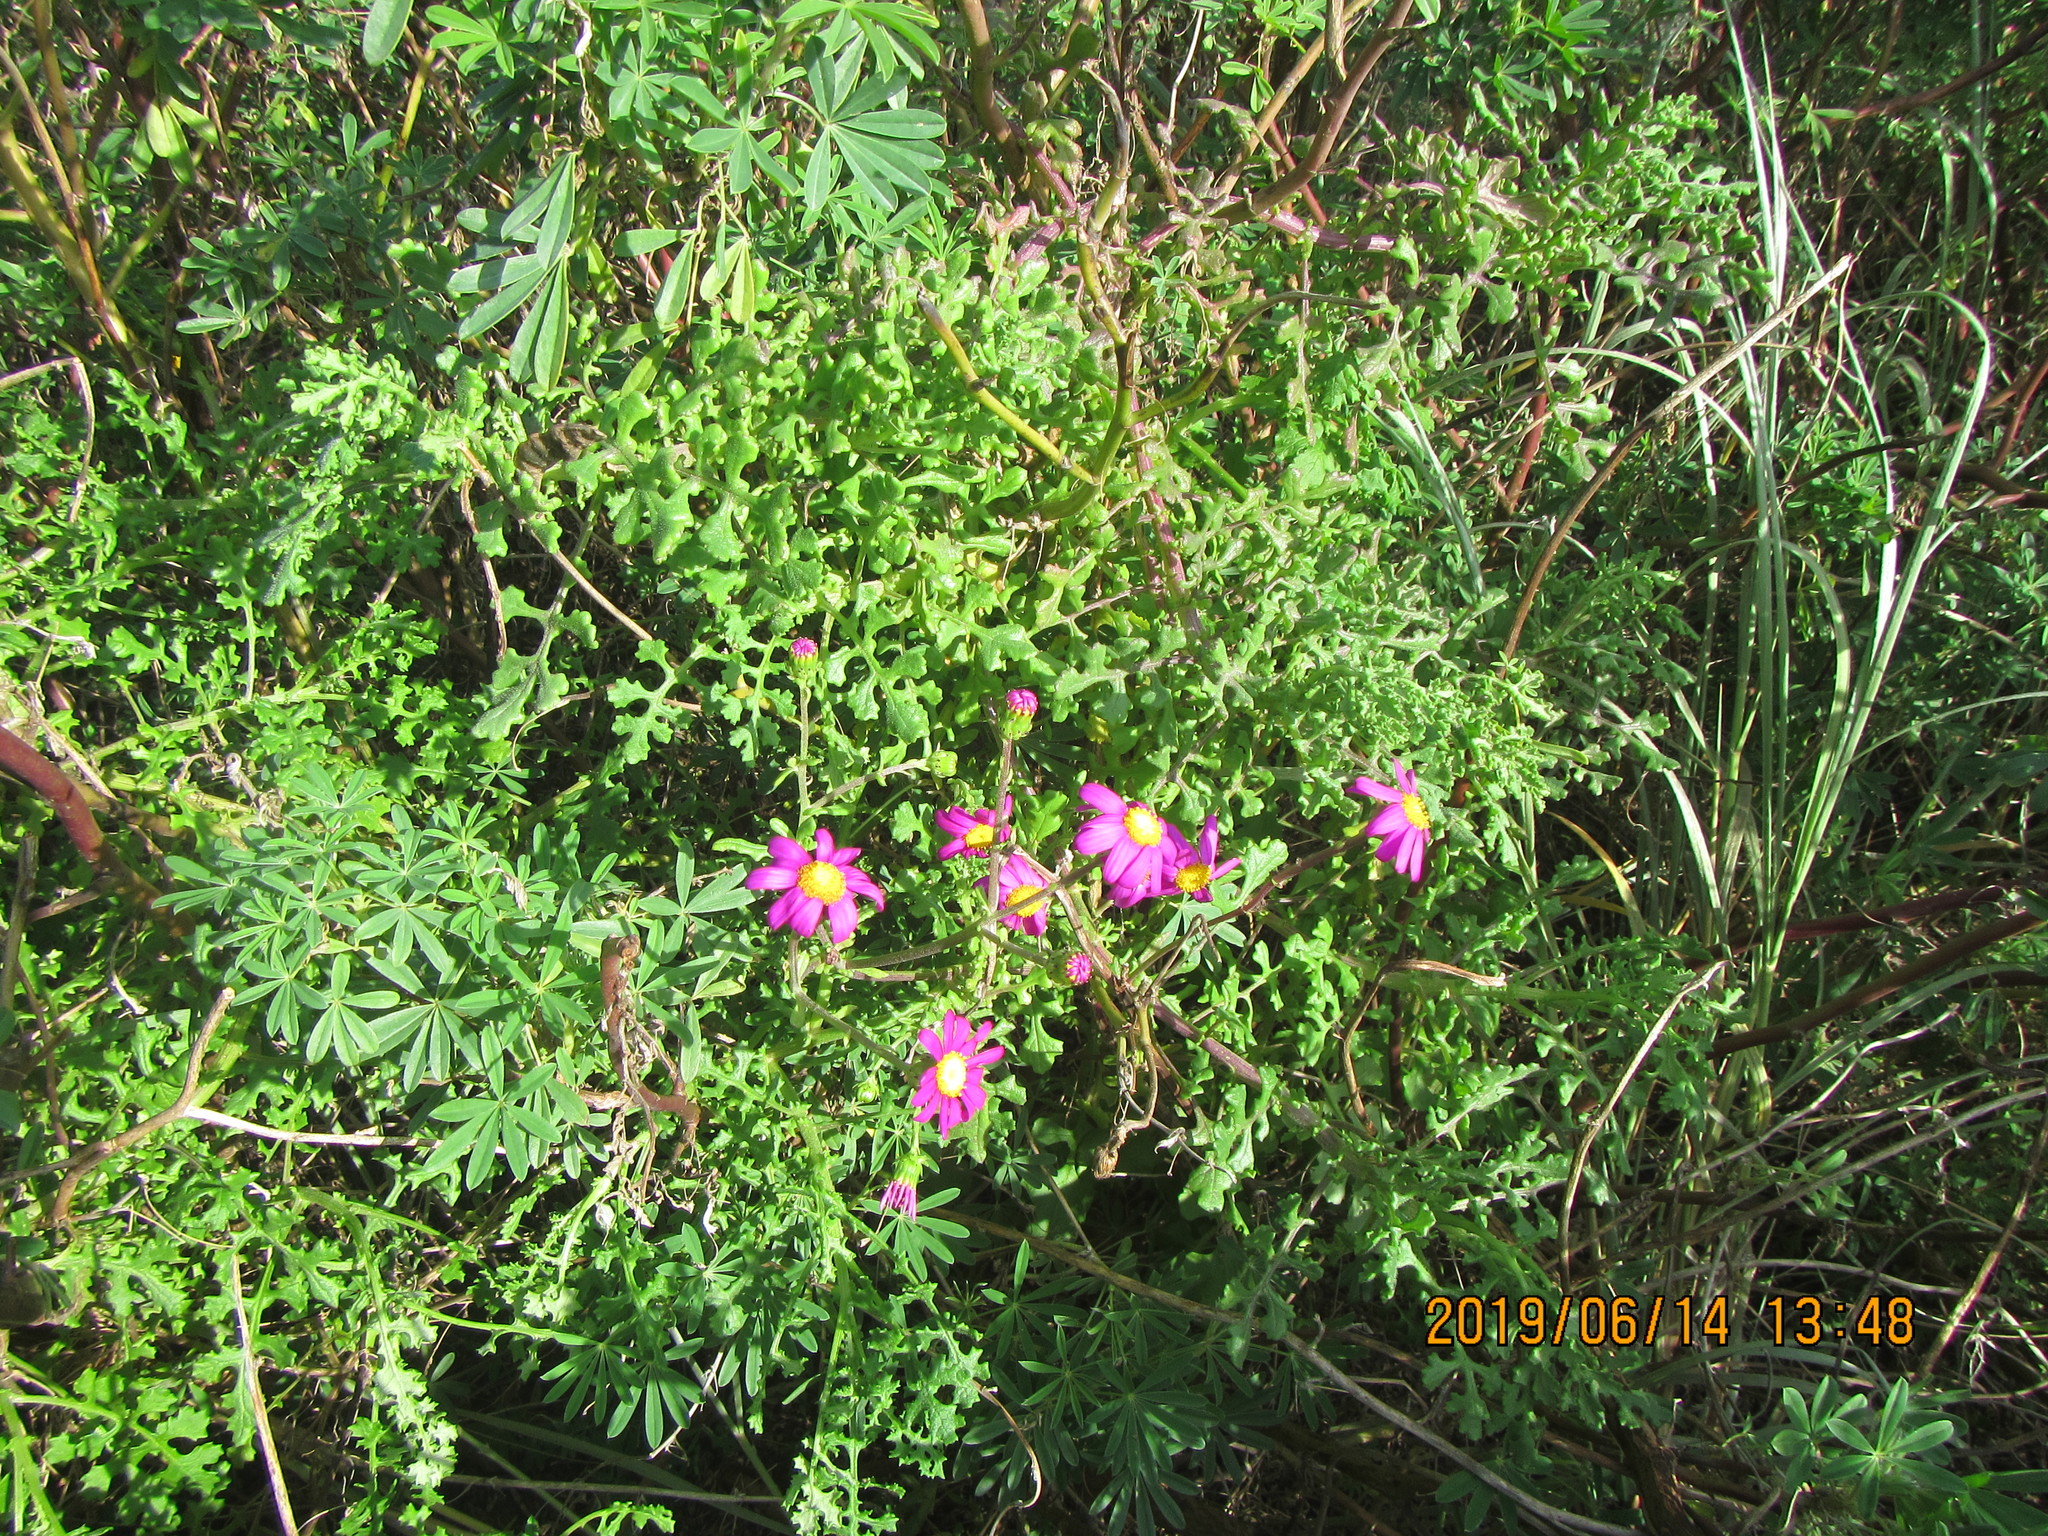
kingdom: Plantae
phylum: Tracheophyta
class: Magnoliopsida
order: Asterales
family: Asteraceae
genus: Senecio
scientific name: Senecio elegans
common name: Purple groundsel
